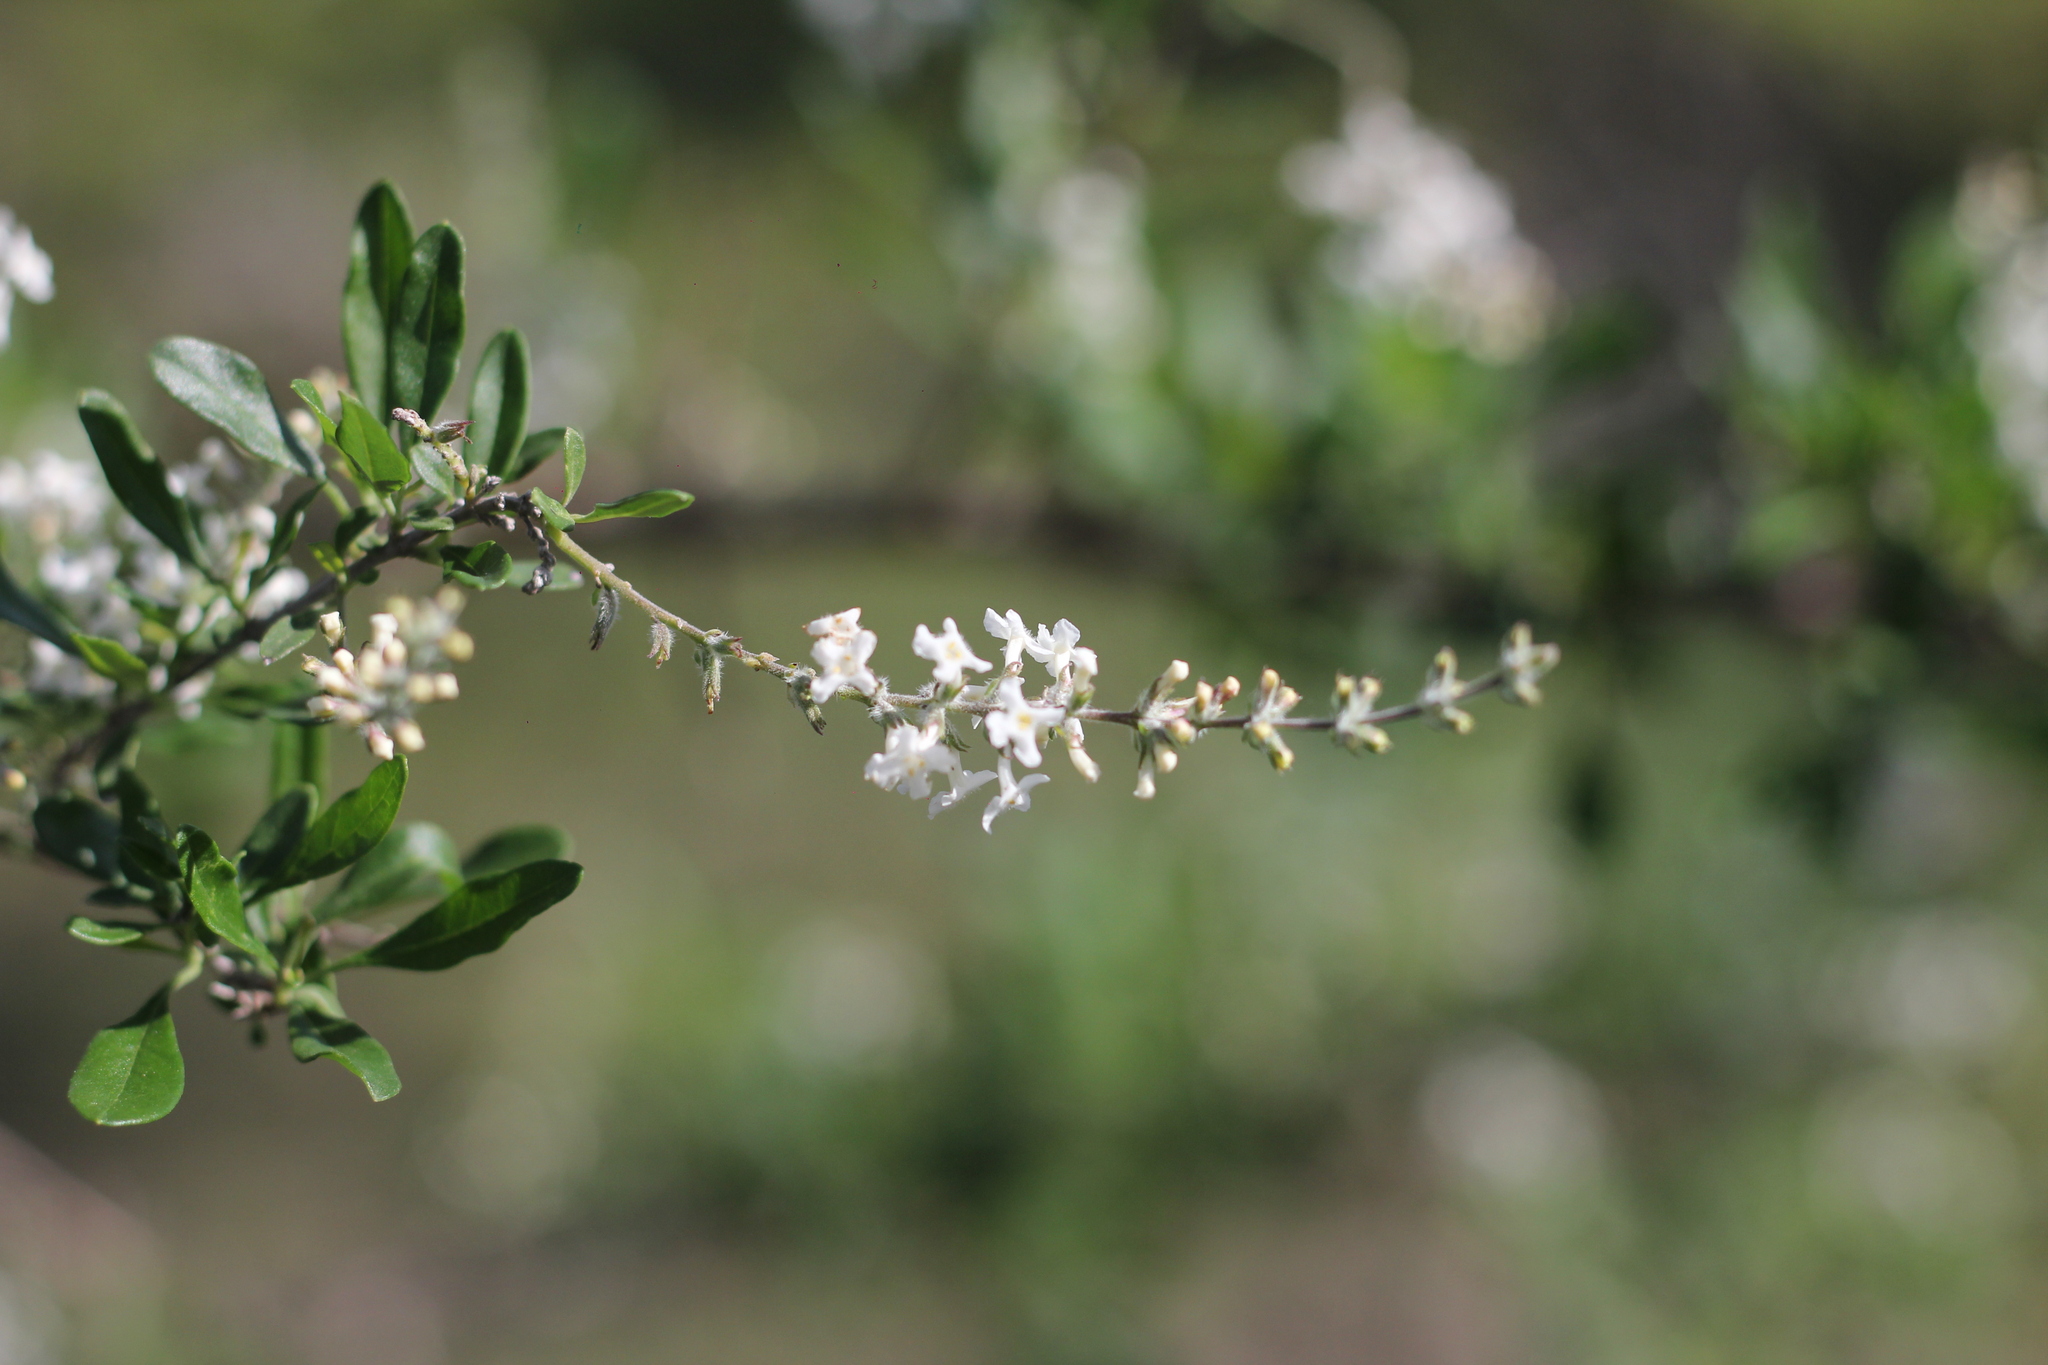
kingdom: Plantae
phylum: Tracheophyta
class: Magnoliopsida
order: Lamiales
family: Verbenaceae
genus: Aloysia
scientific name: Aloysia gratissima
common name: Common bee-brush
